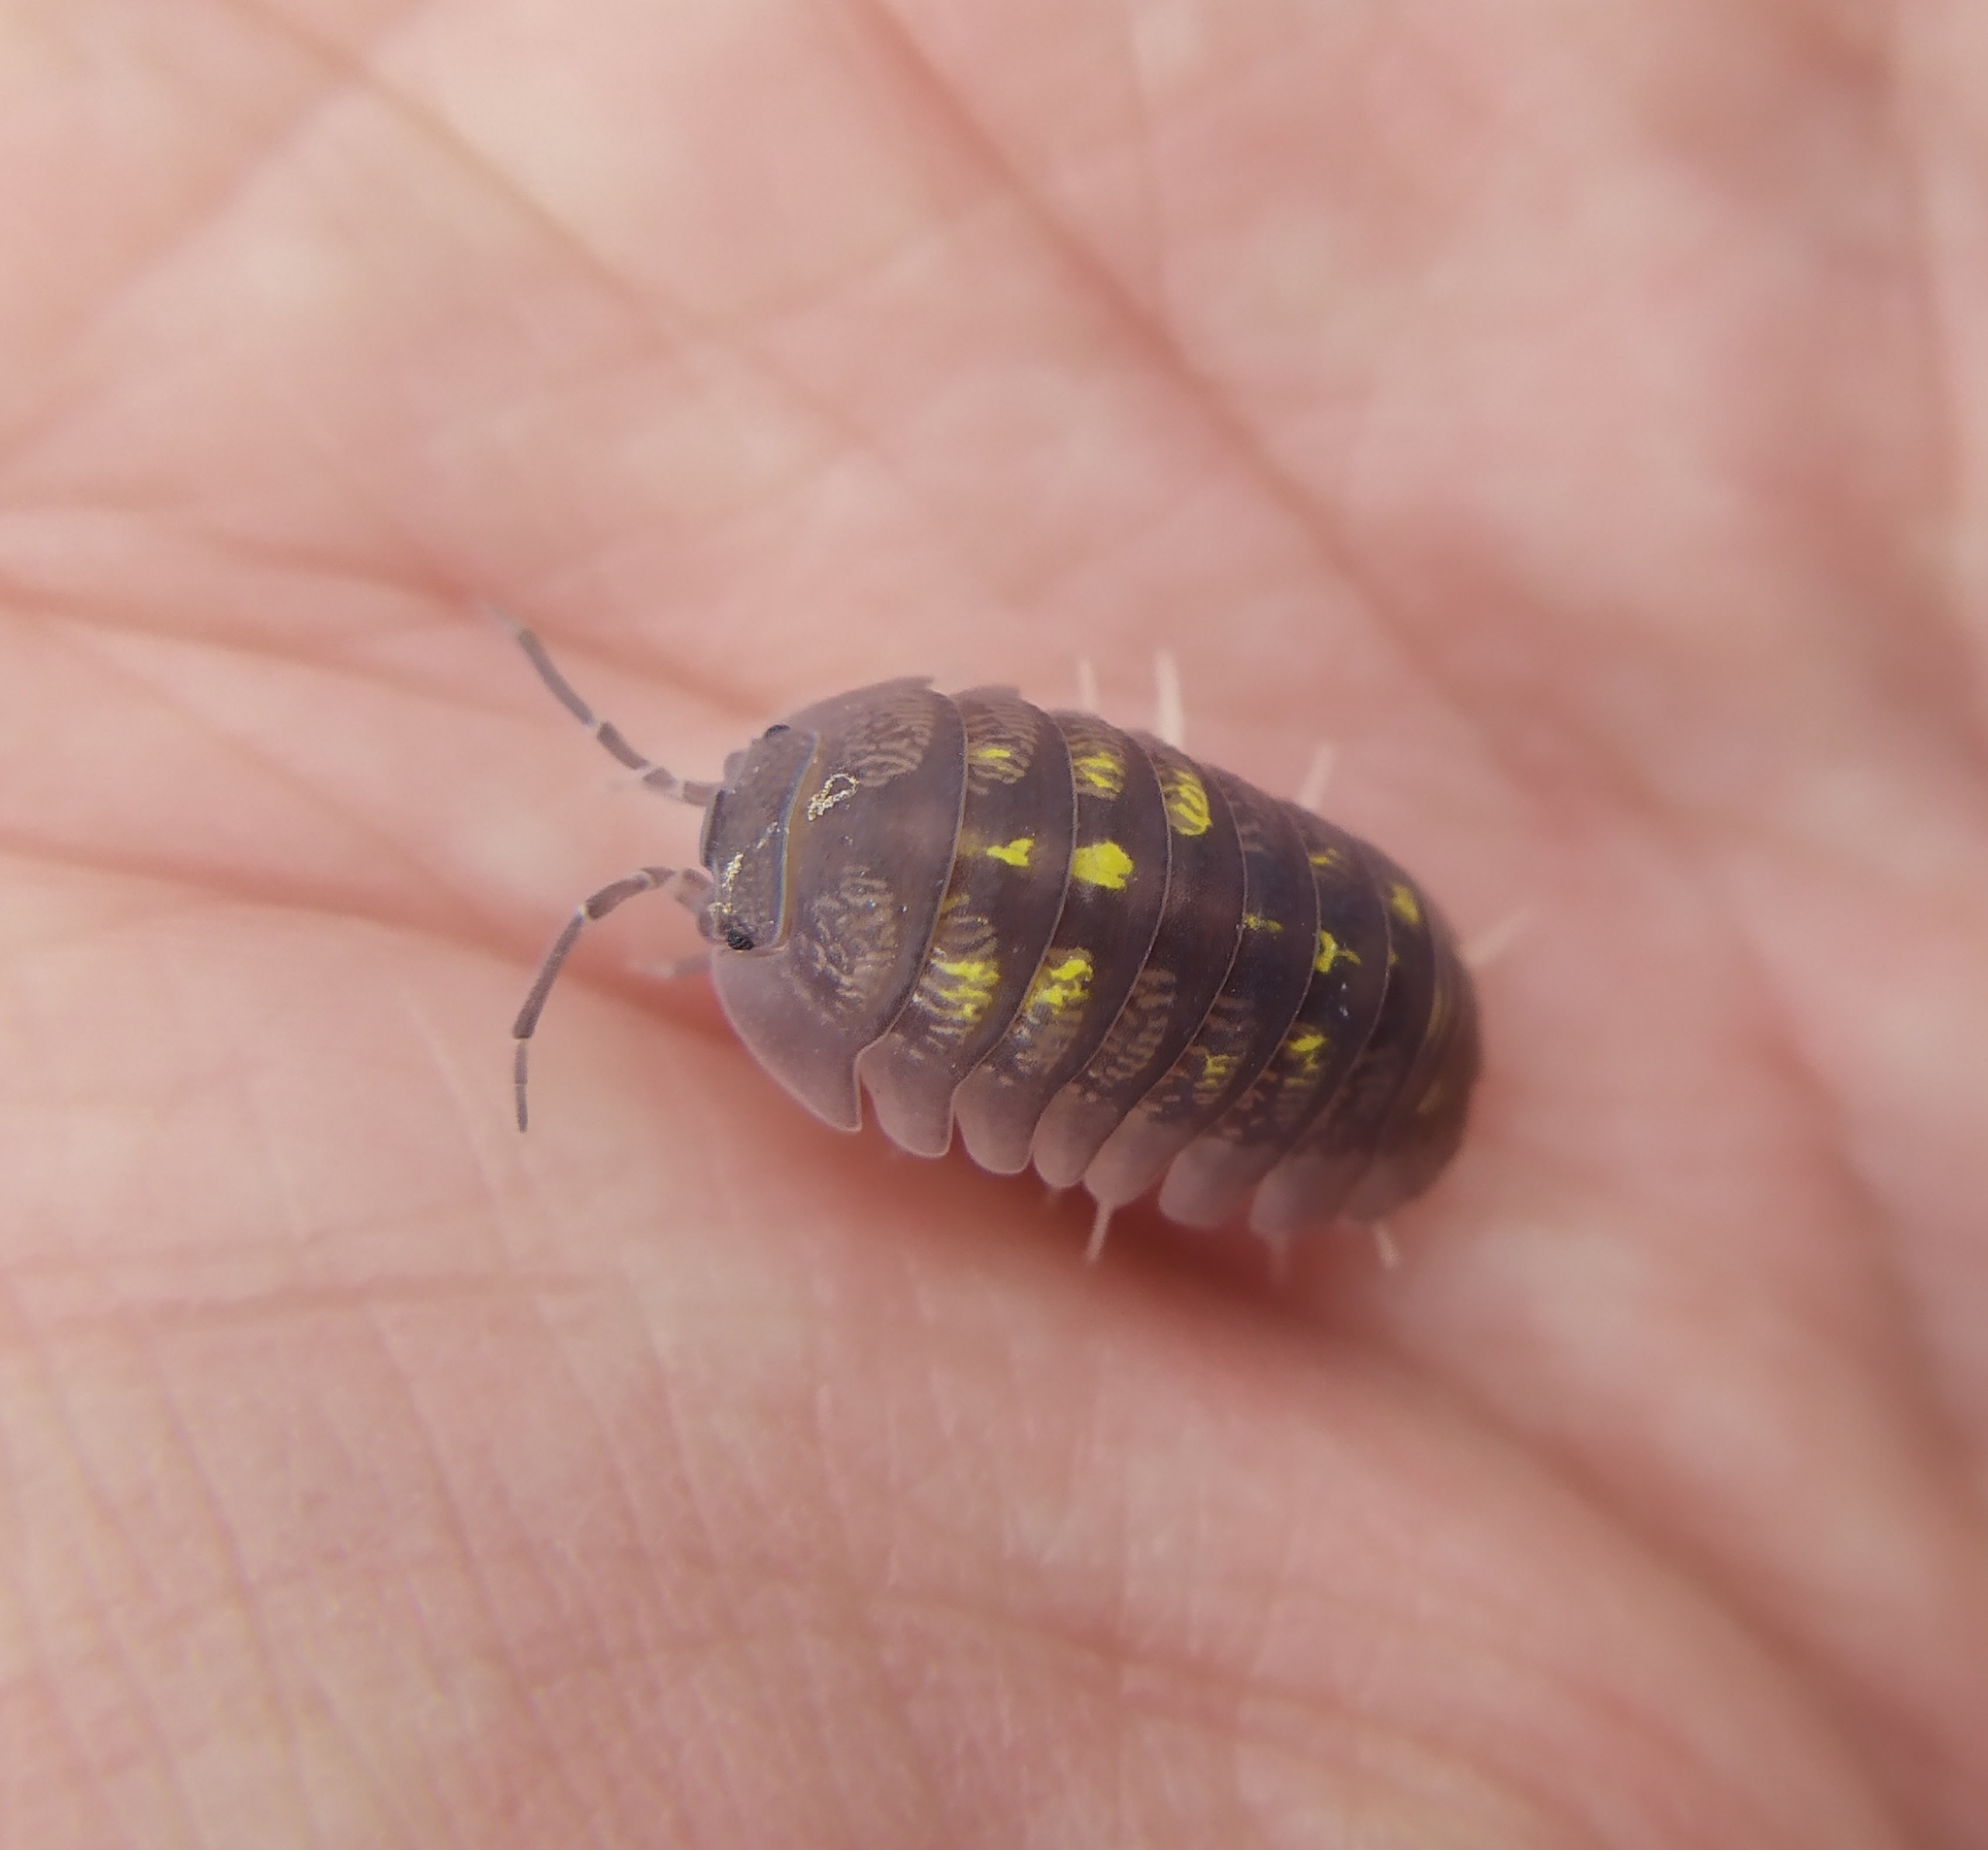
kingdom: Animalia
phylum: Arthropoda
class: Malacostraca
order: Isopoda
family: Armadillidiidae
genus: Armadillidium
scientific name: Armadillidium granulatum
